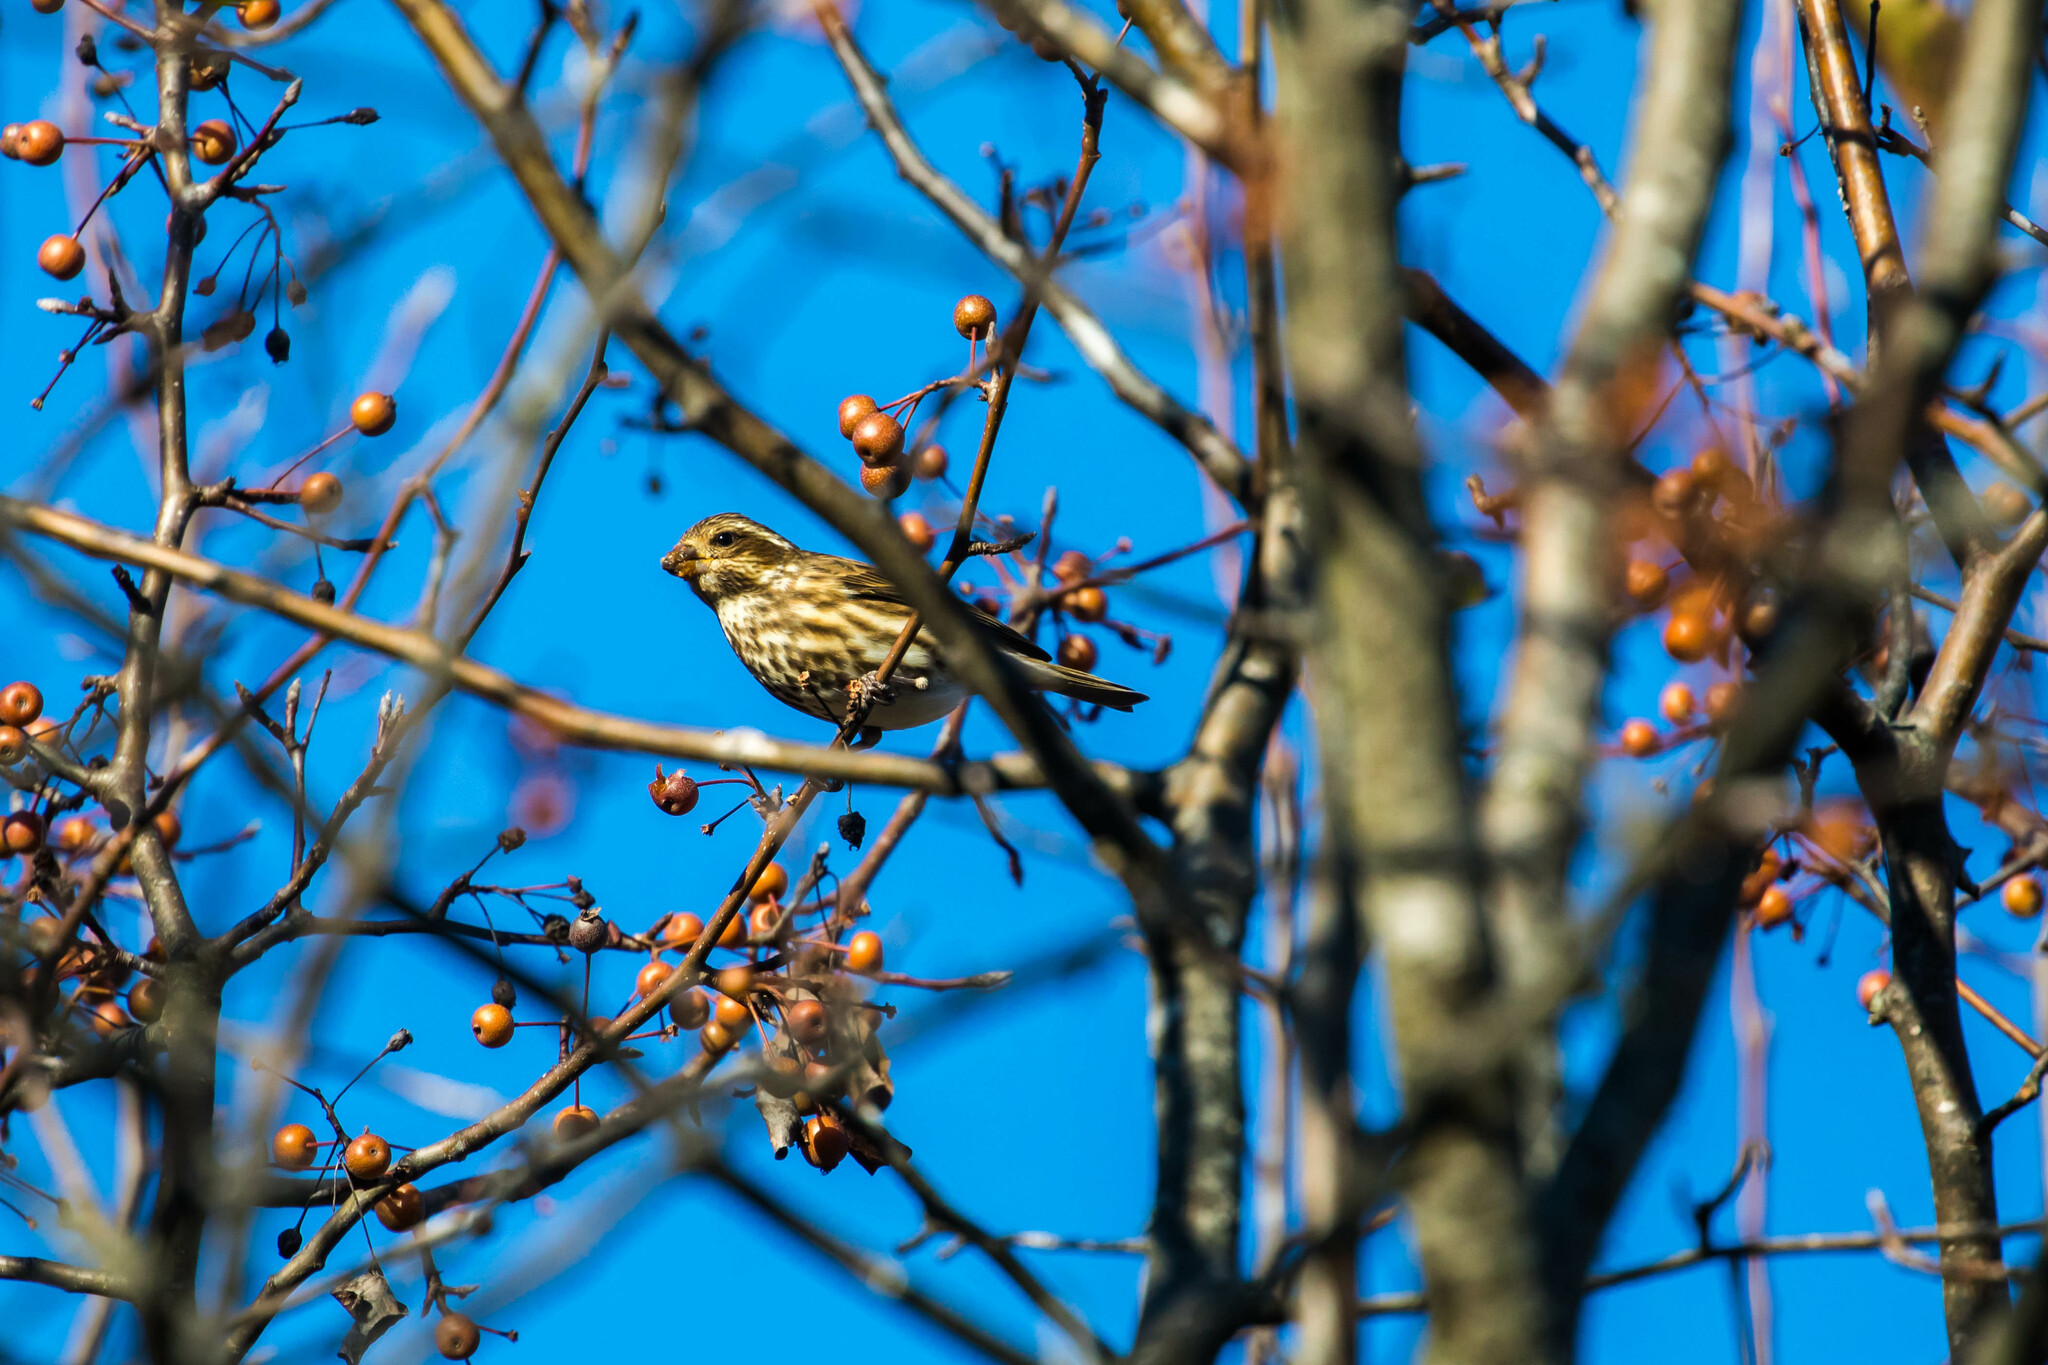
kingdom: Animalia
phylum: Chordata
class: Aves
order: Passeriformes
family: Fringillidae
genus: Haemorhous
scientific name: Haemorhous purpureus
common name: Purple finch
